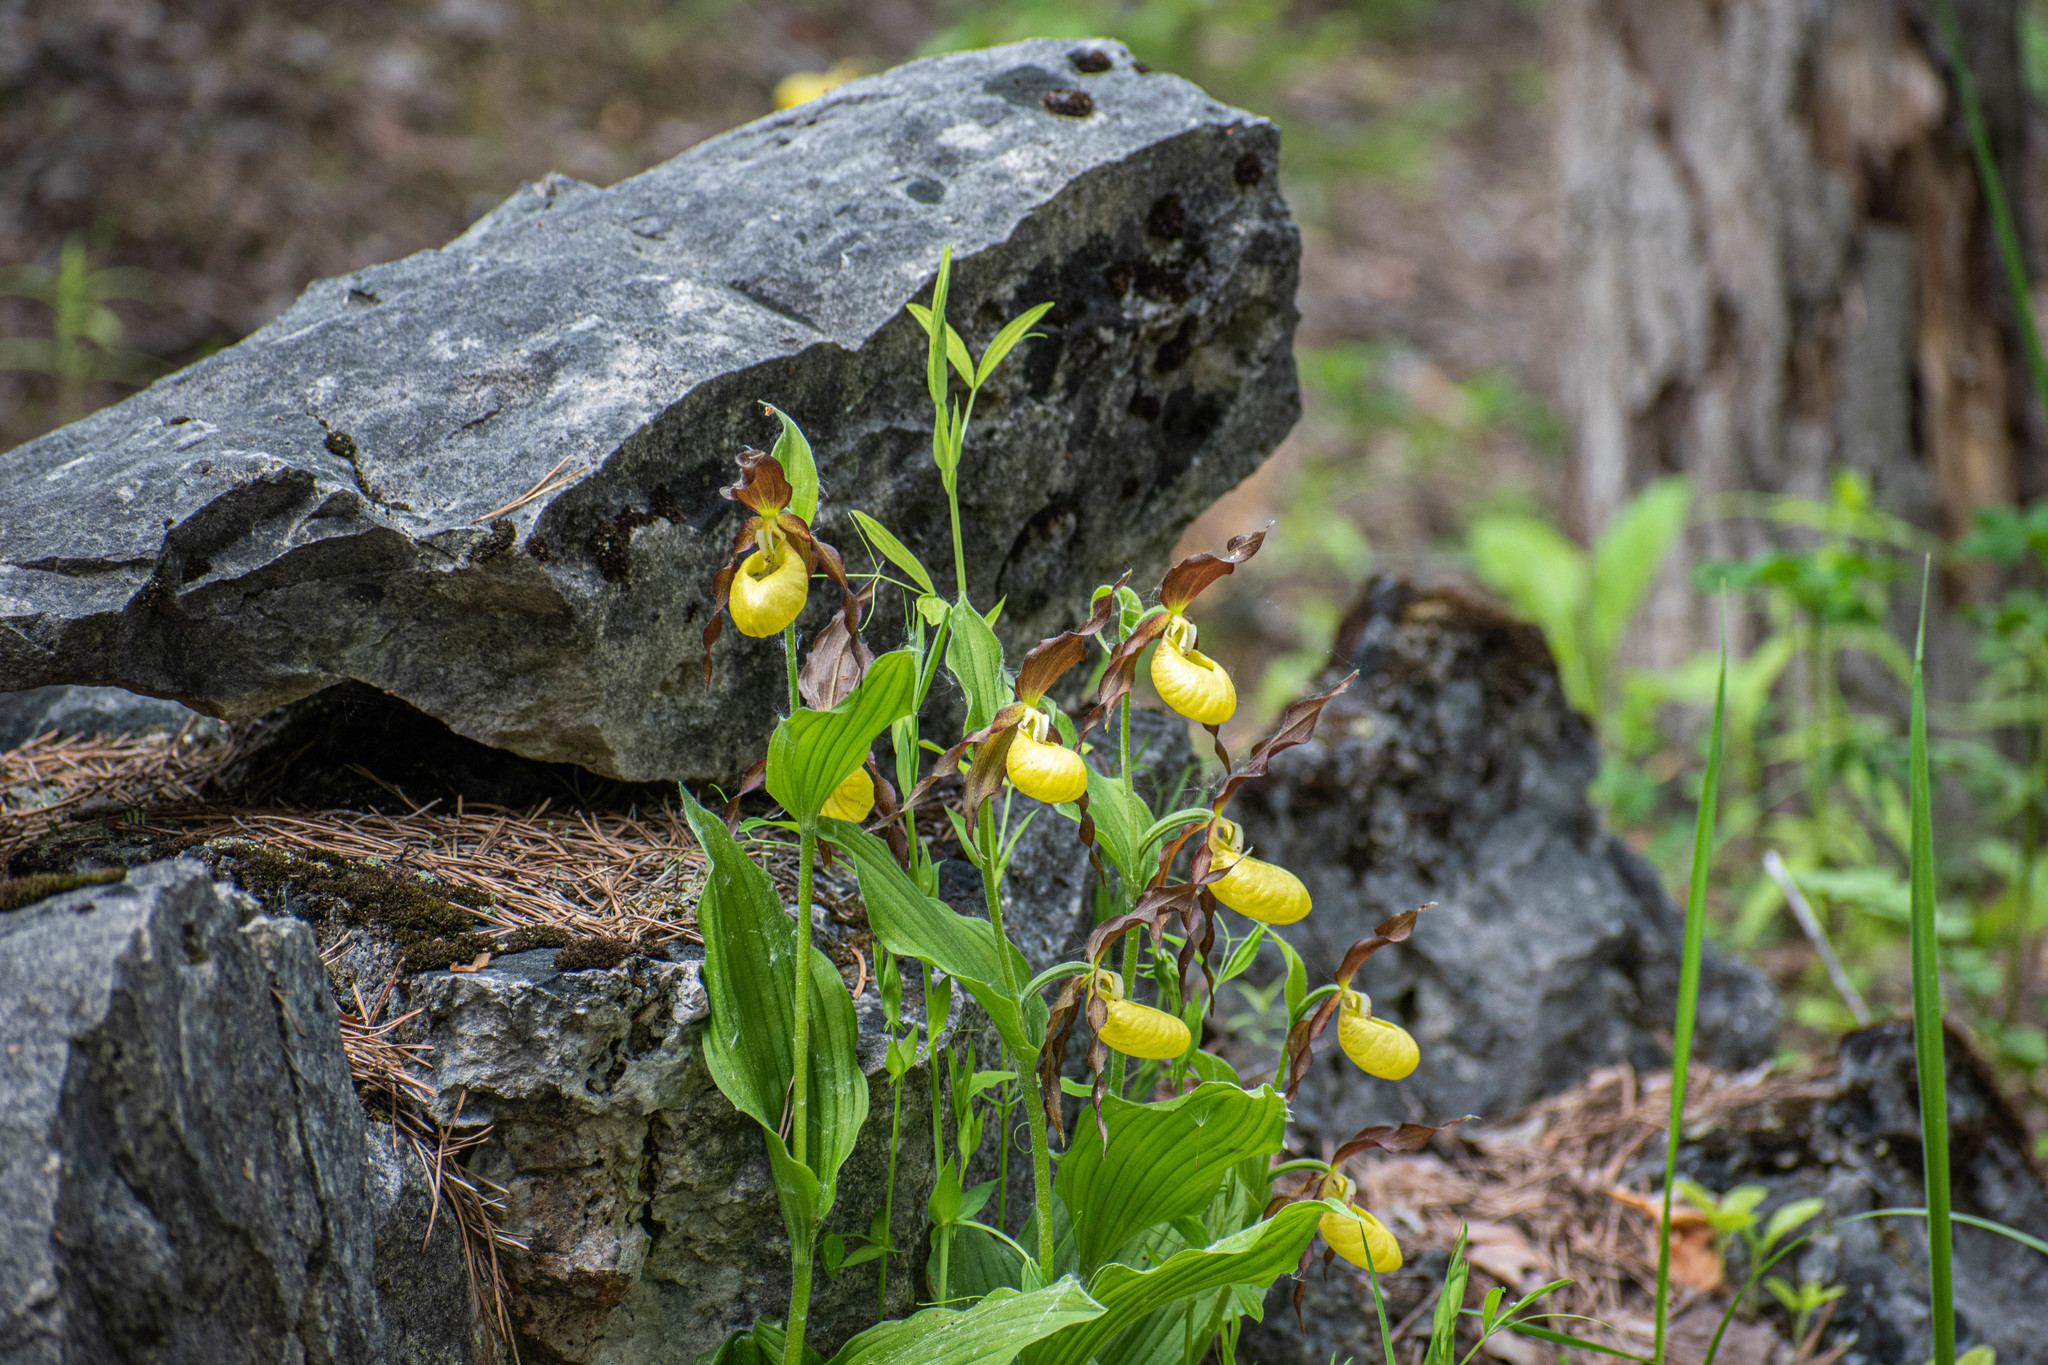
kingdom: Plantae
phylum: Tracheophyta
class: Liliopsida
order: Asparagales
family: Orchidaceae
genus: Cypripedium
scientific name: Cypripedium calceolus
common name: Lady's-slipper
